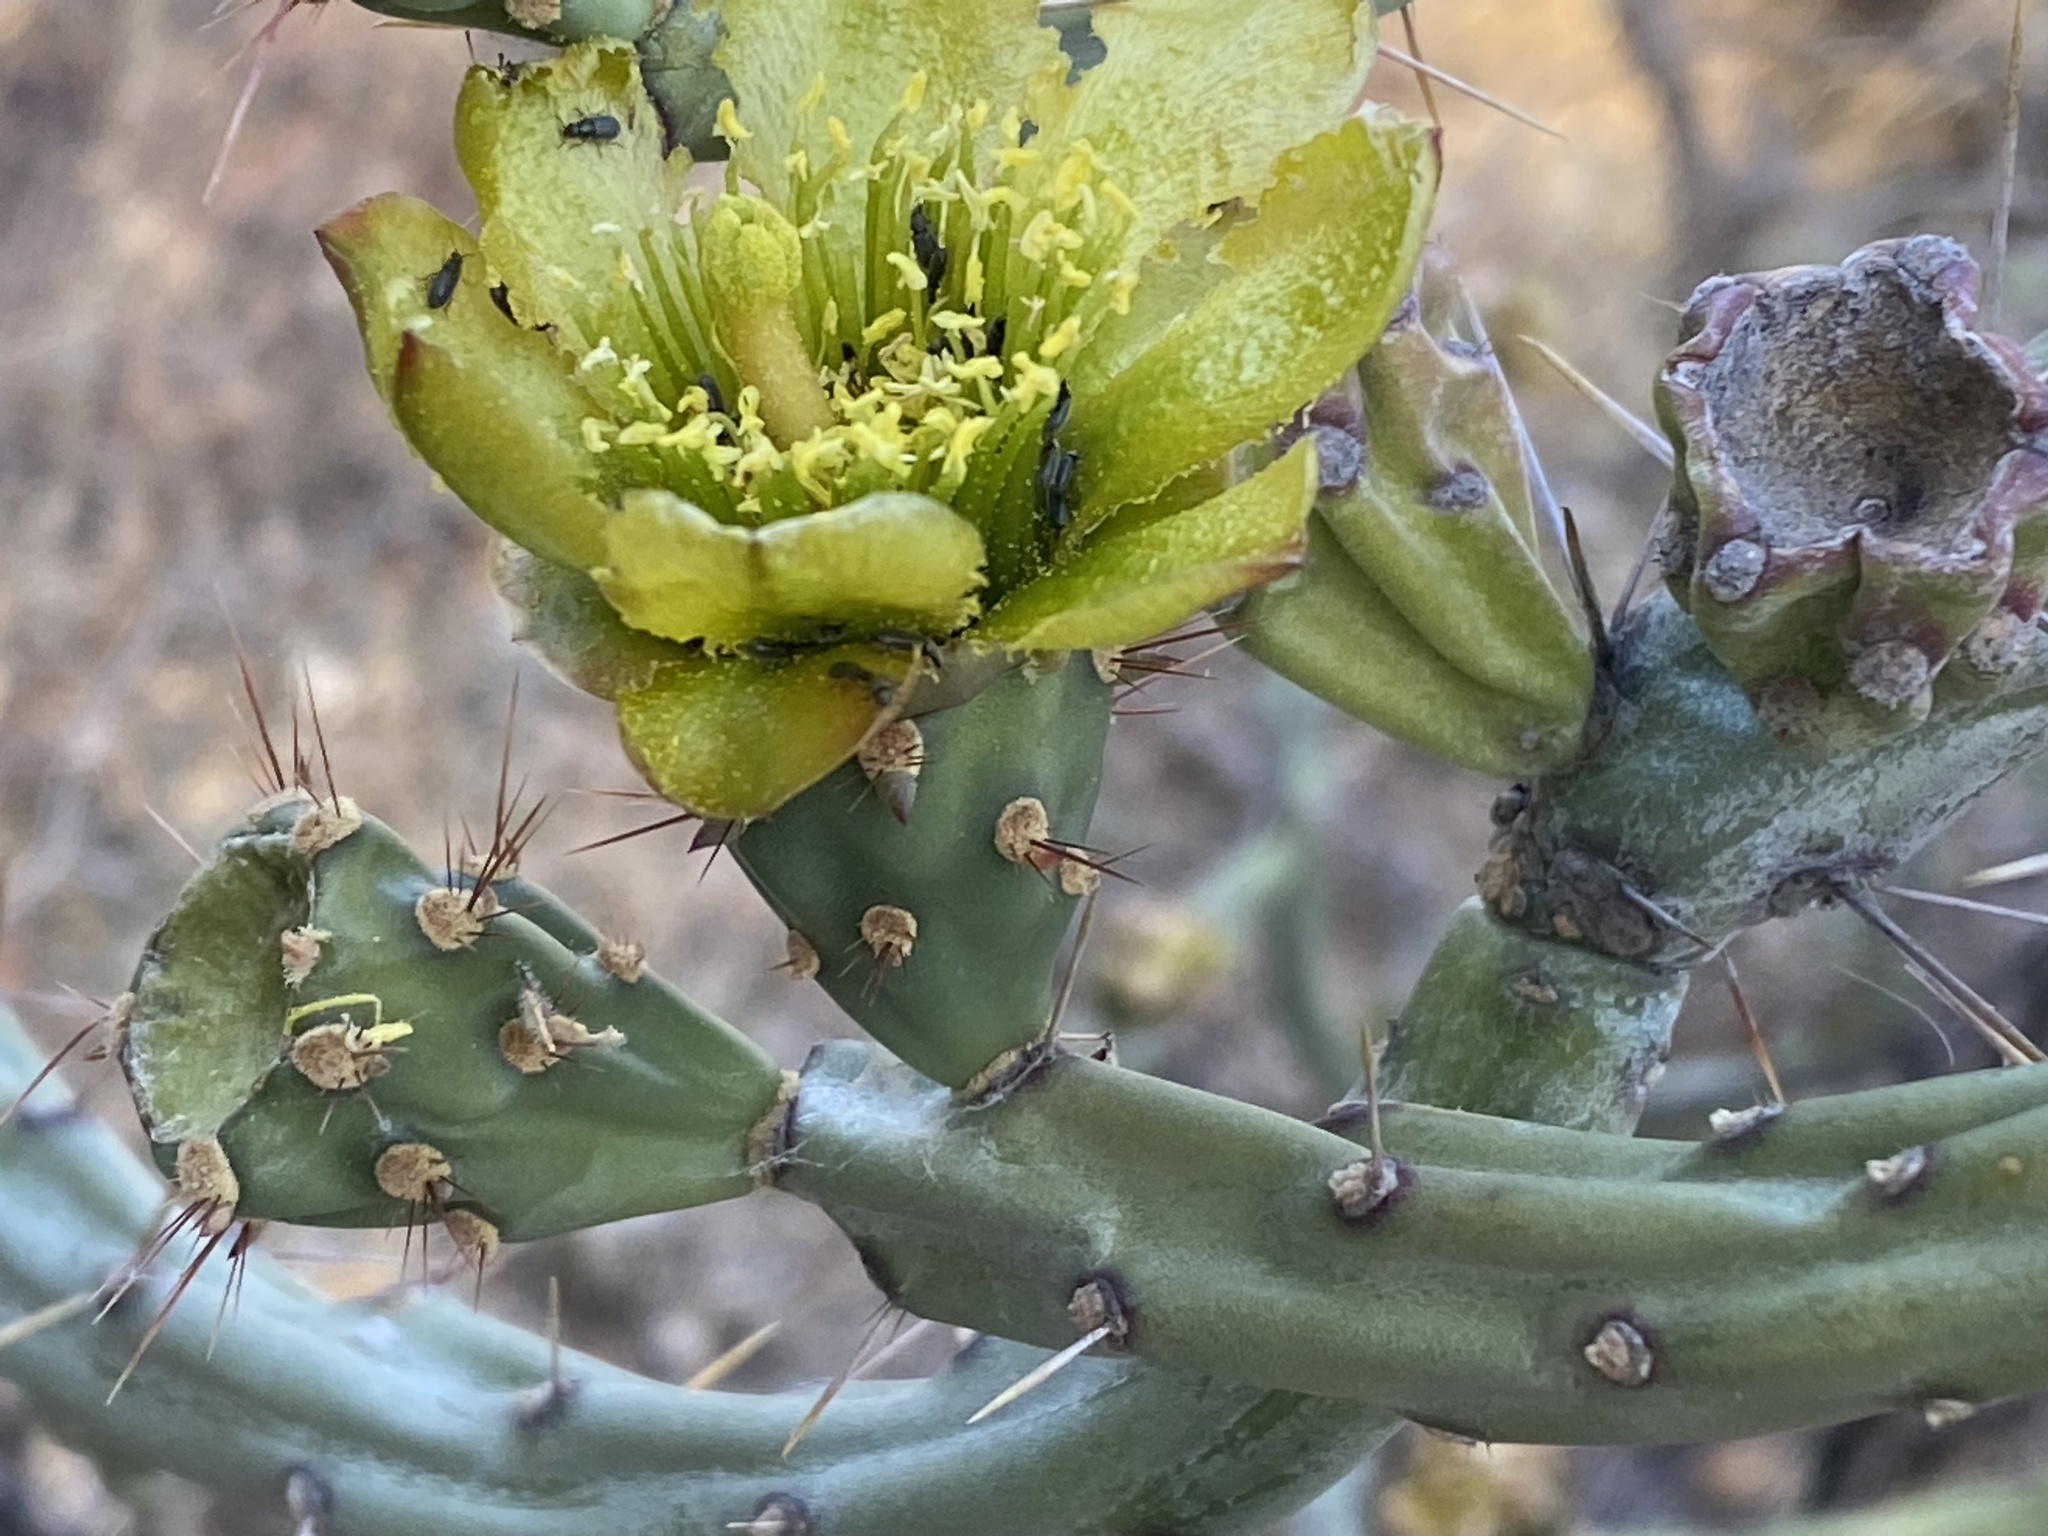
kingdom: Plantae
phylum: Tracheophyta
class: Magnoliopsida
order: Caryophyllales
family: Cactaceae
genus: Cylindropuntia
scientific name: Cylindropuntia thurberi
